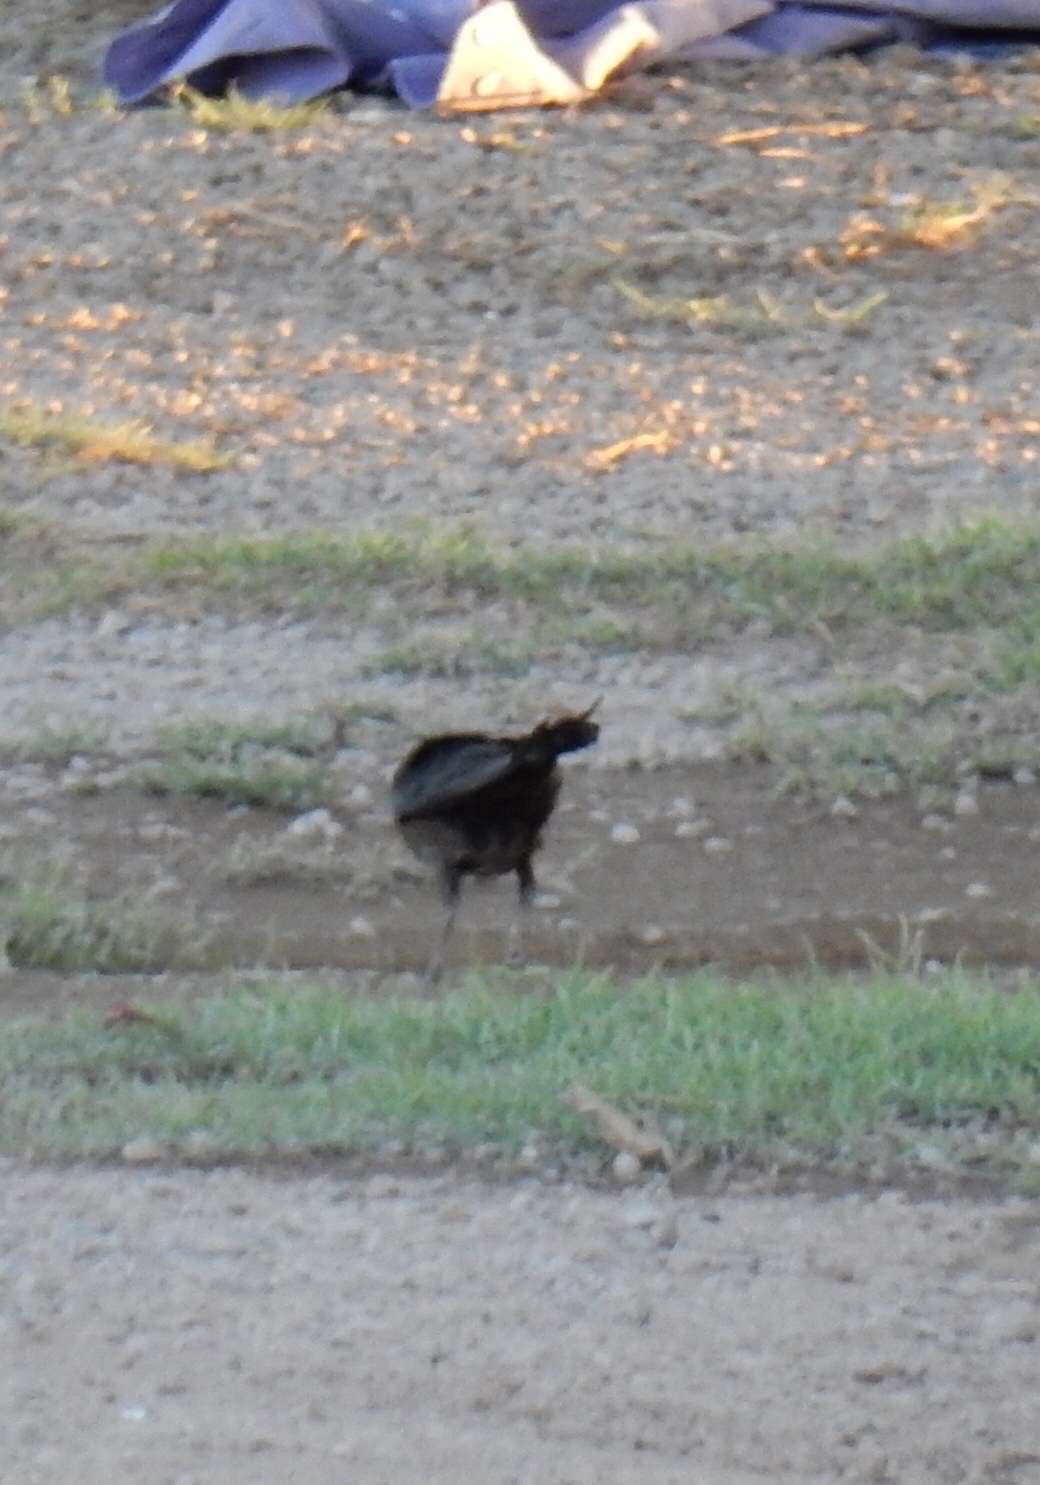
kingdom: Animalia
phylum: Chordata
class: Aves
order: Passeriformes
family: Icteridae
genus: Quiscalus
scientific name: Quiscalus mexicanus
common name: Great-tailed grackle
